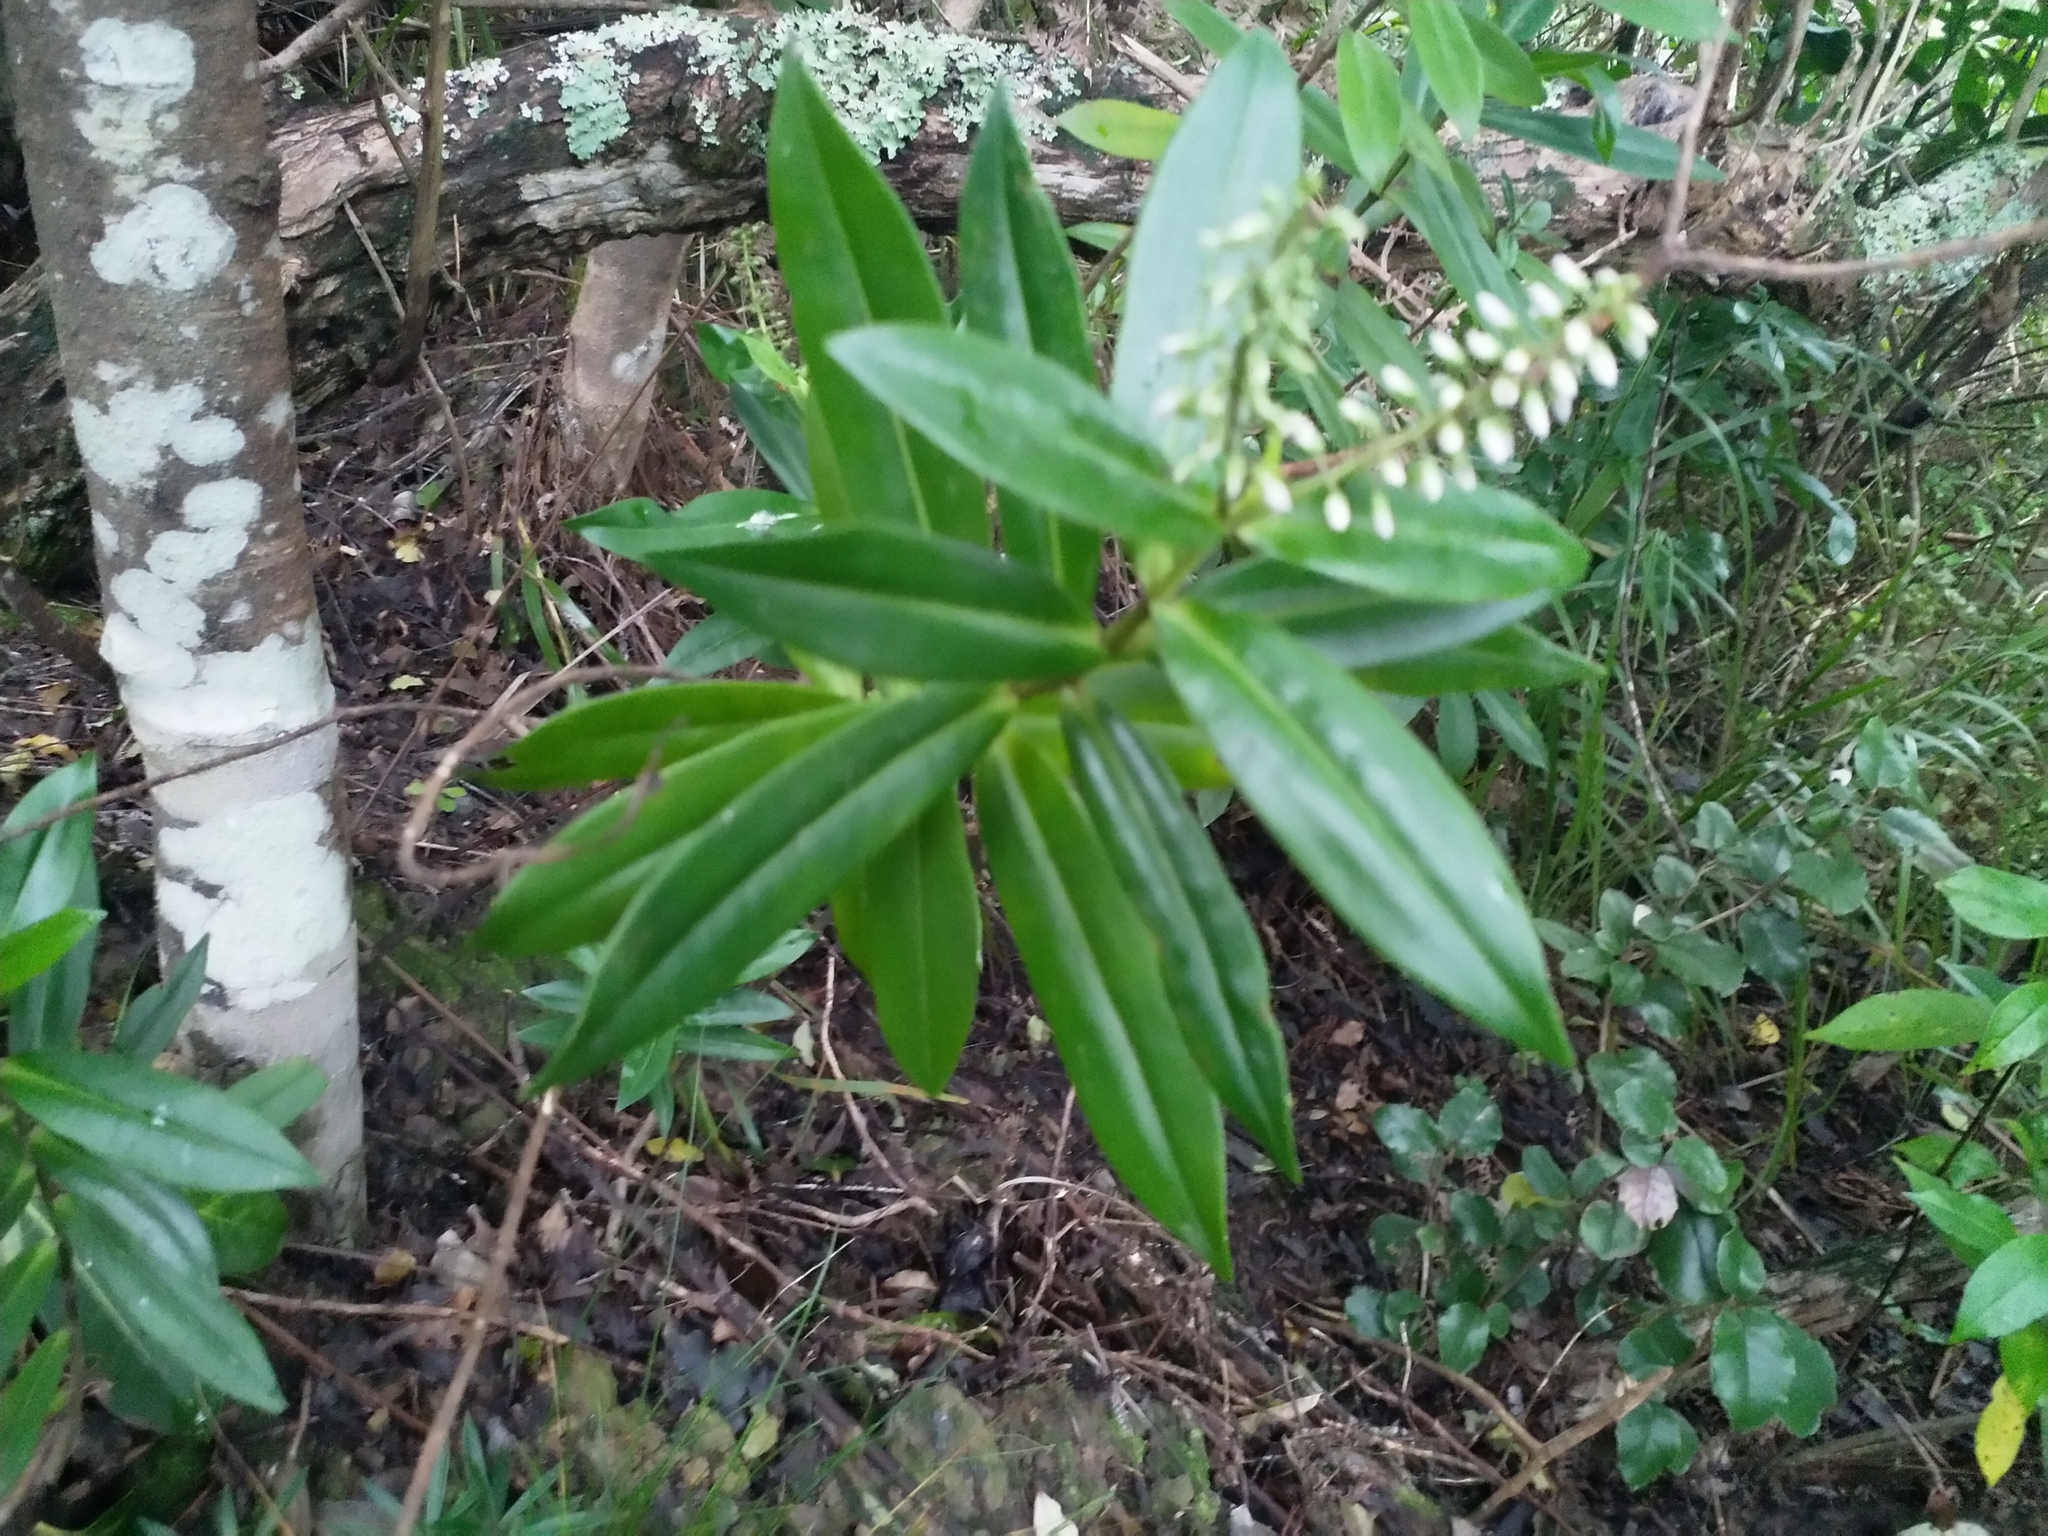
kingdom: Plantae
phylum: Tracheophyta
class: Magnoliopsida
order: Lamiales
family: Plantaginaceae
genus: Veronica
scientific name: Veronica macrocarpa
